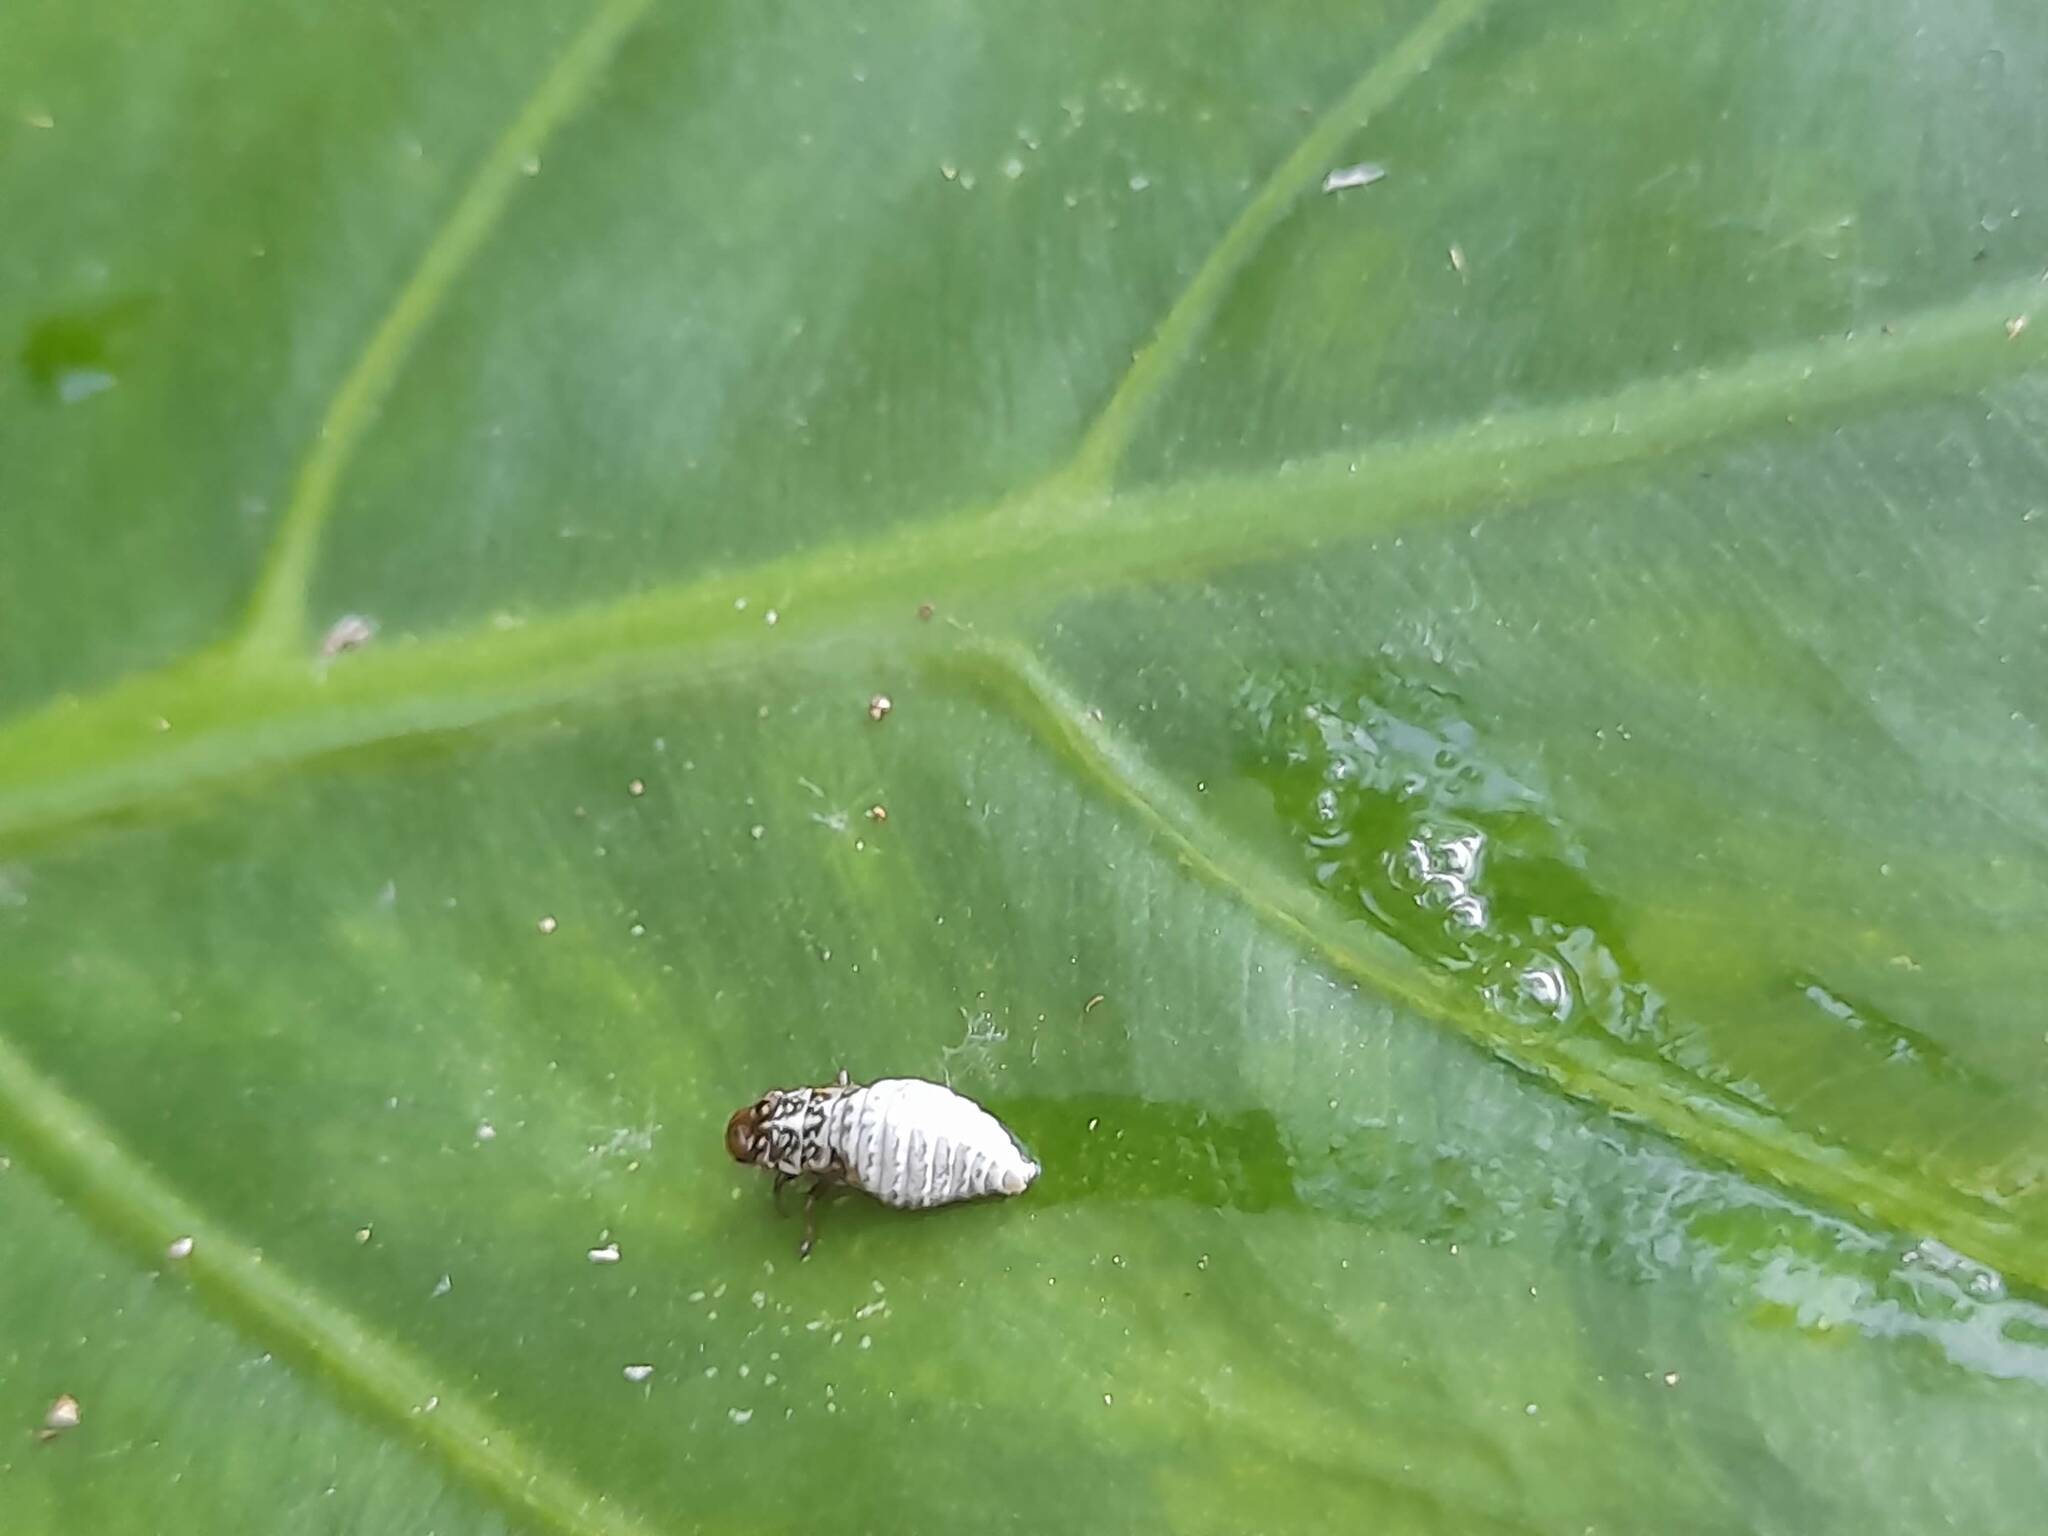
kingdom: Animalia
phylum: Arthropoda
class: Insecta
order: Hemiptera
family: Aphrophoridae
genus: Cephisus
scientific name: Cephisus siccifolius
